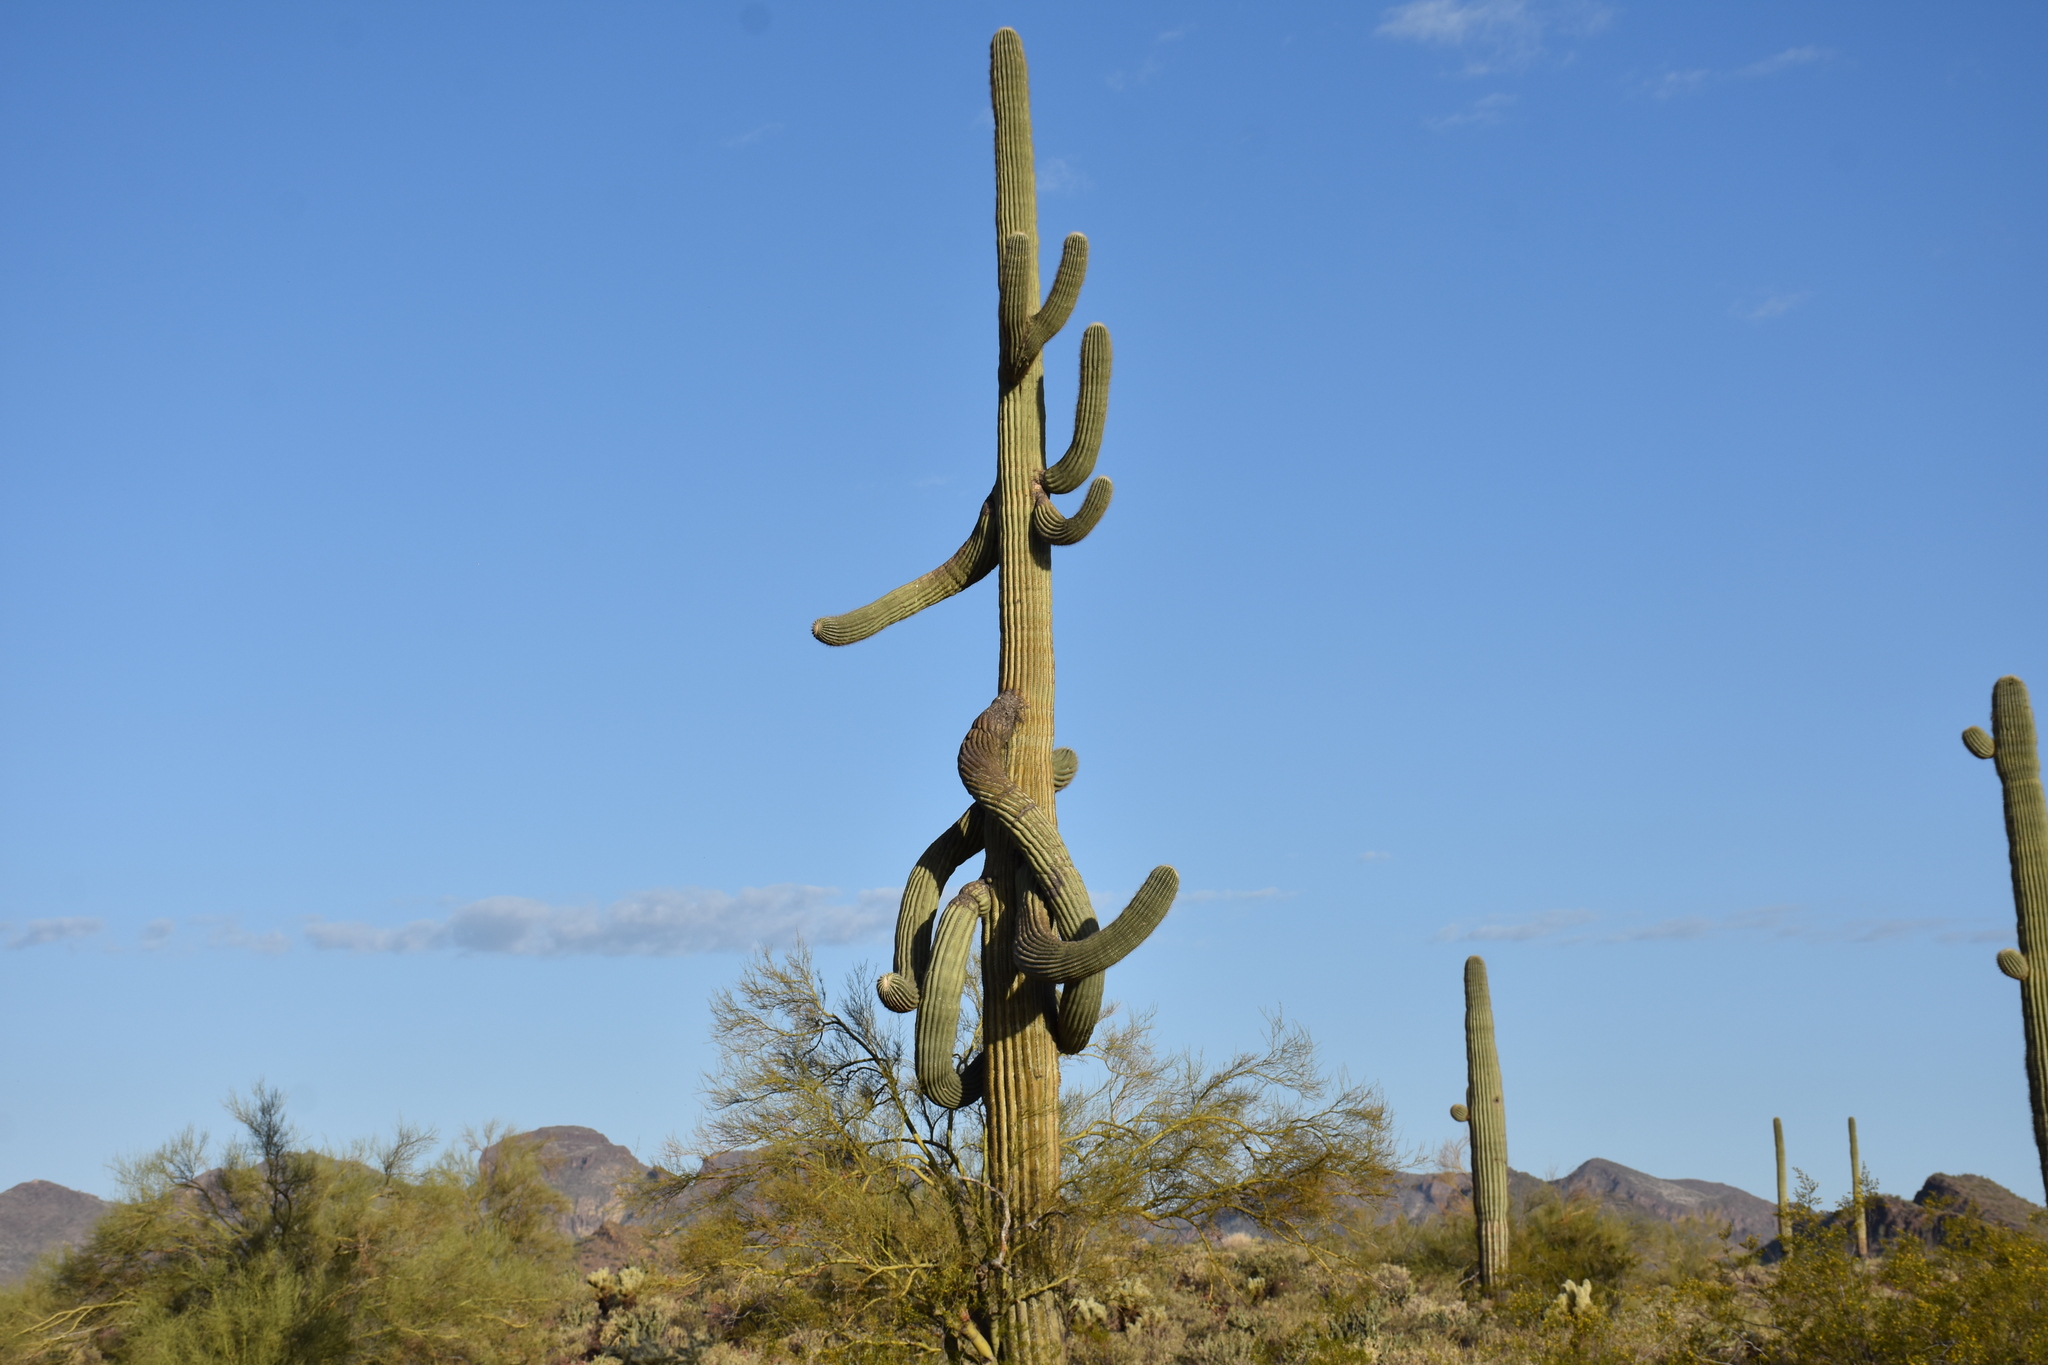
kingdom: Plantae
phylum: Tracheophyta
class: Magnoliopsida
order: Caryophyllales
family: Cactaceae
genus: Carnegiea
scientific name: Carnegiea gigantea
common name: Saguaro
